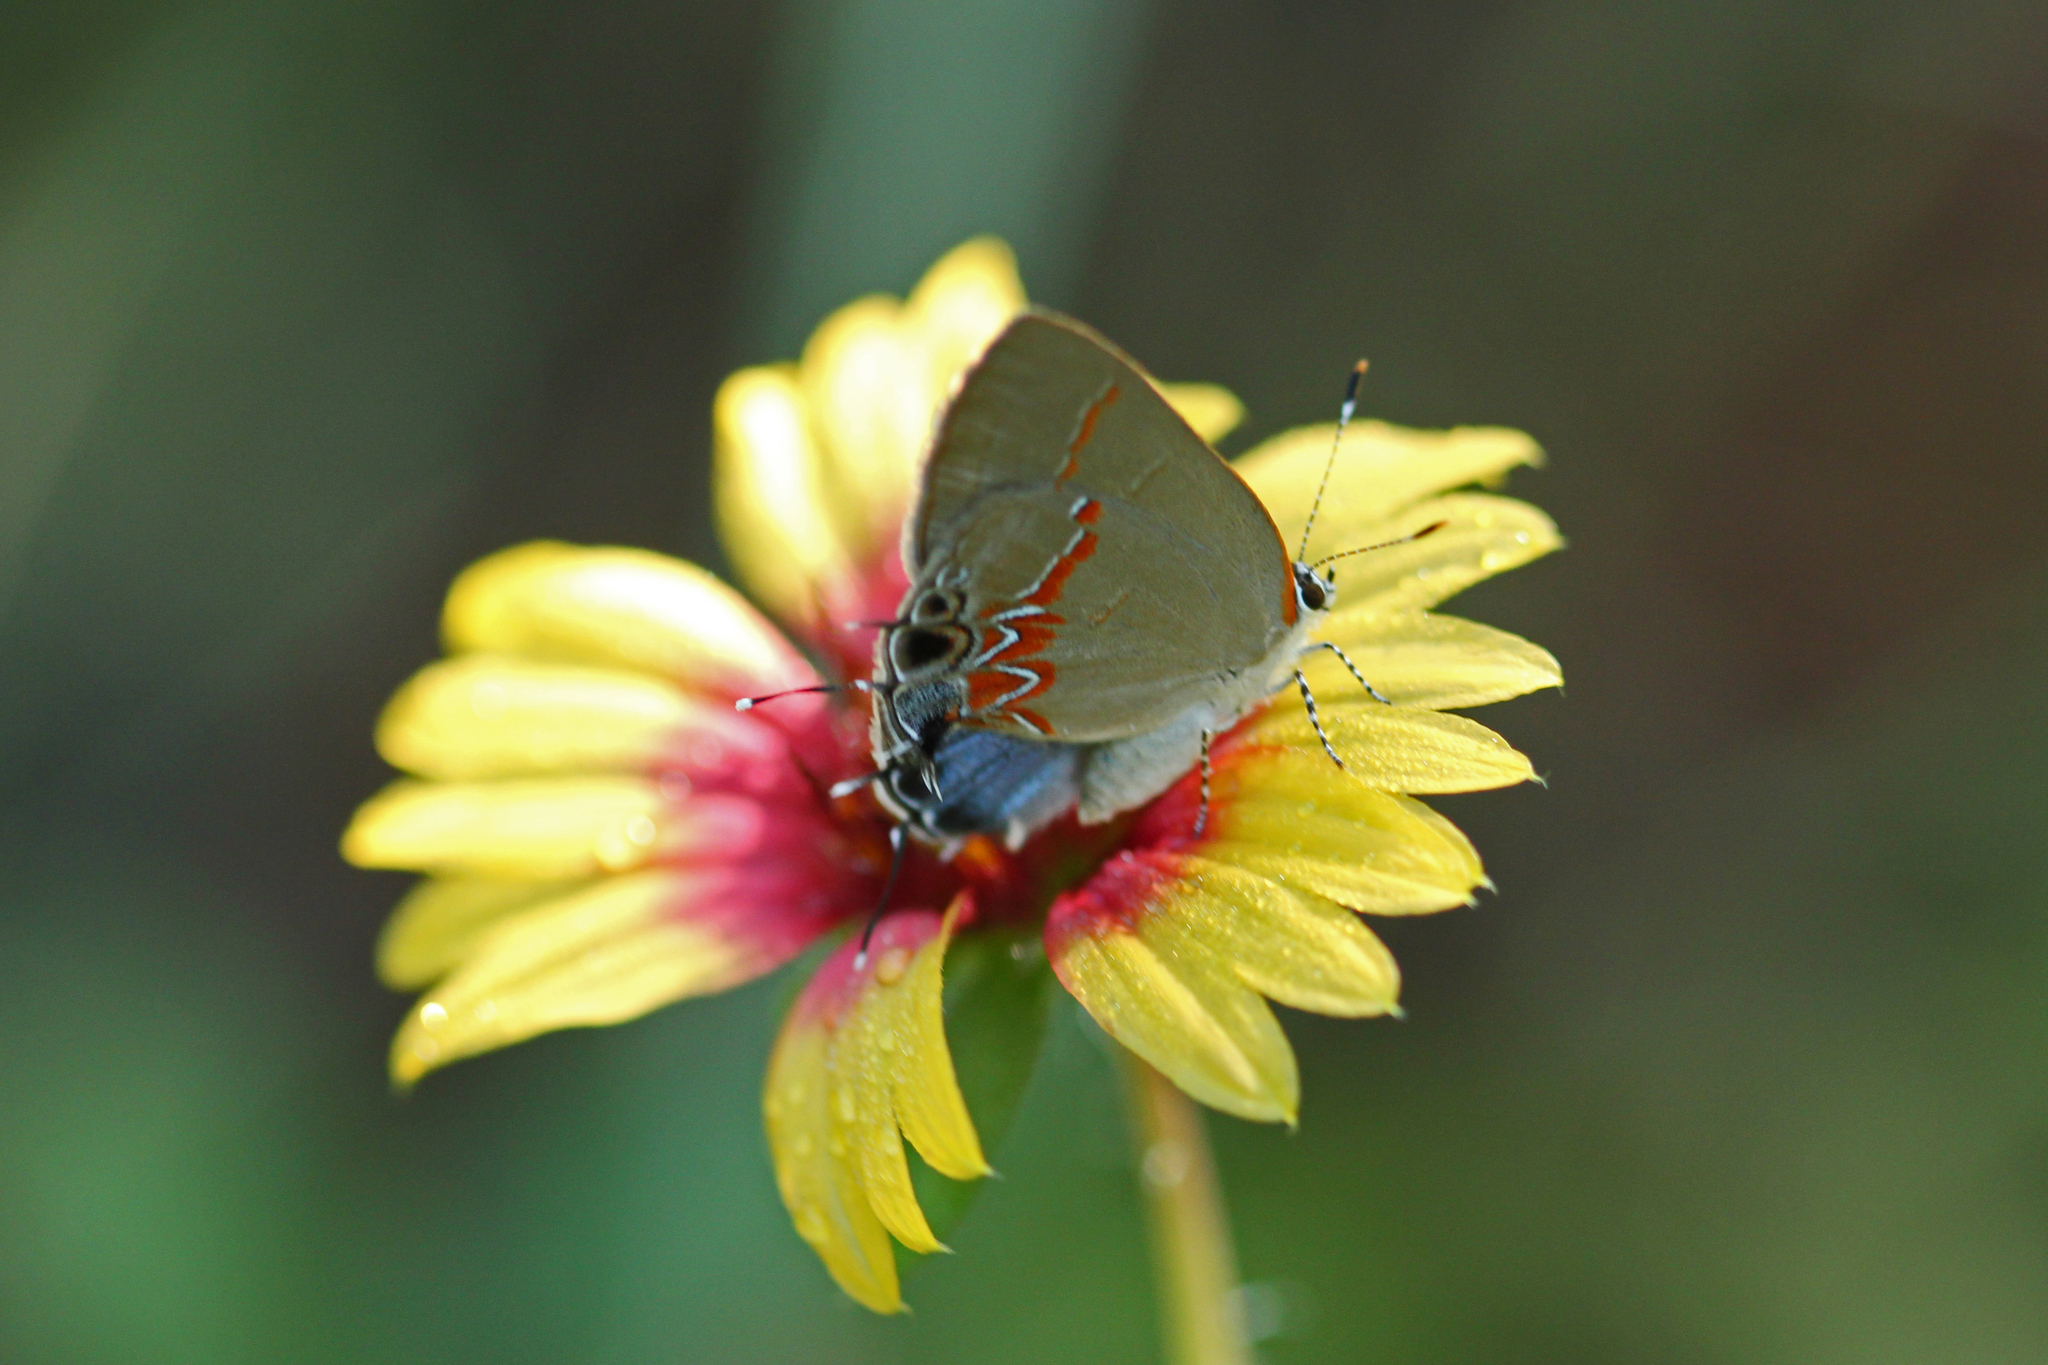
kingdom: Animalia
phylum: Arthropoda
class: Insecta
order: Lepidoptera
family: Lycaenidae
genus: Calycopis
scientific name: Calycopis cecrops
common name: Red-banded hairstreak
